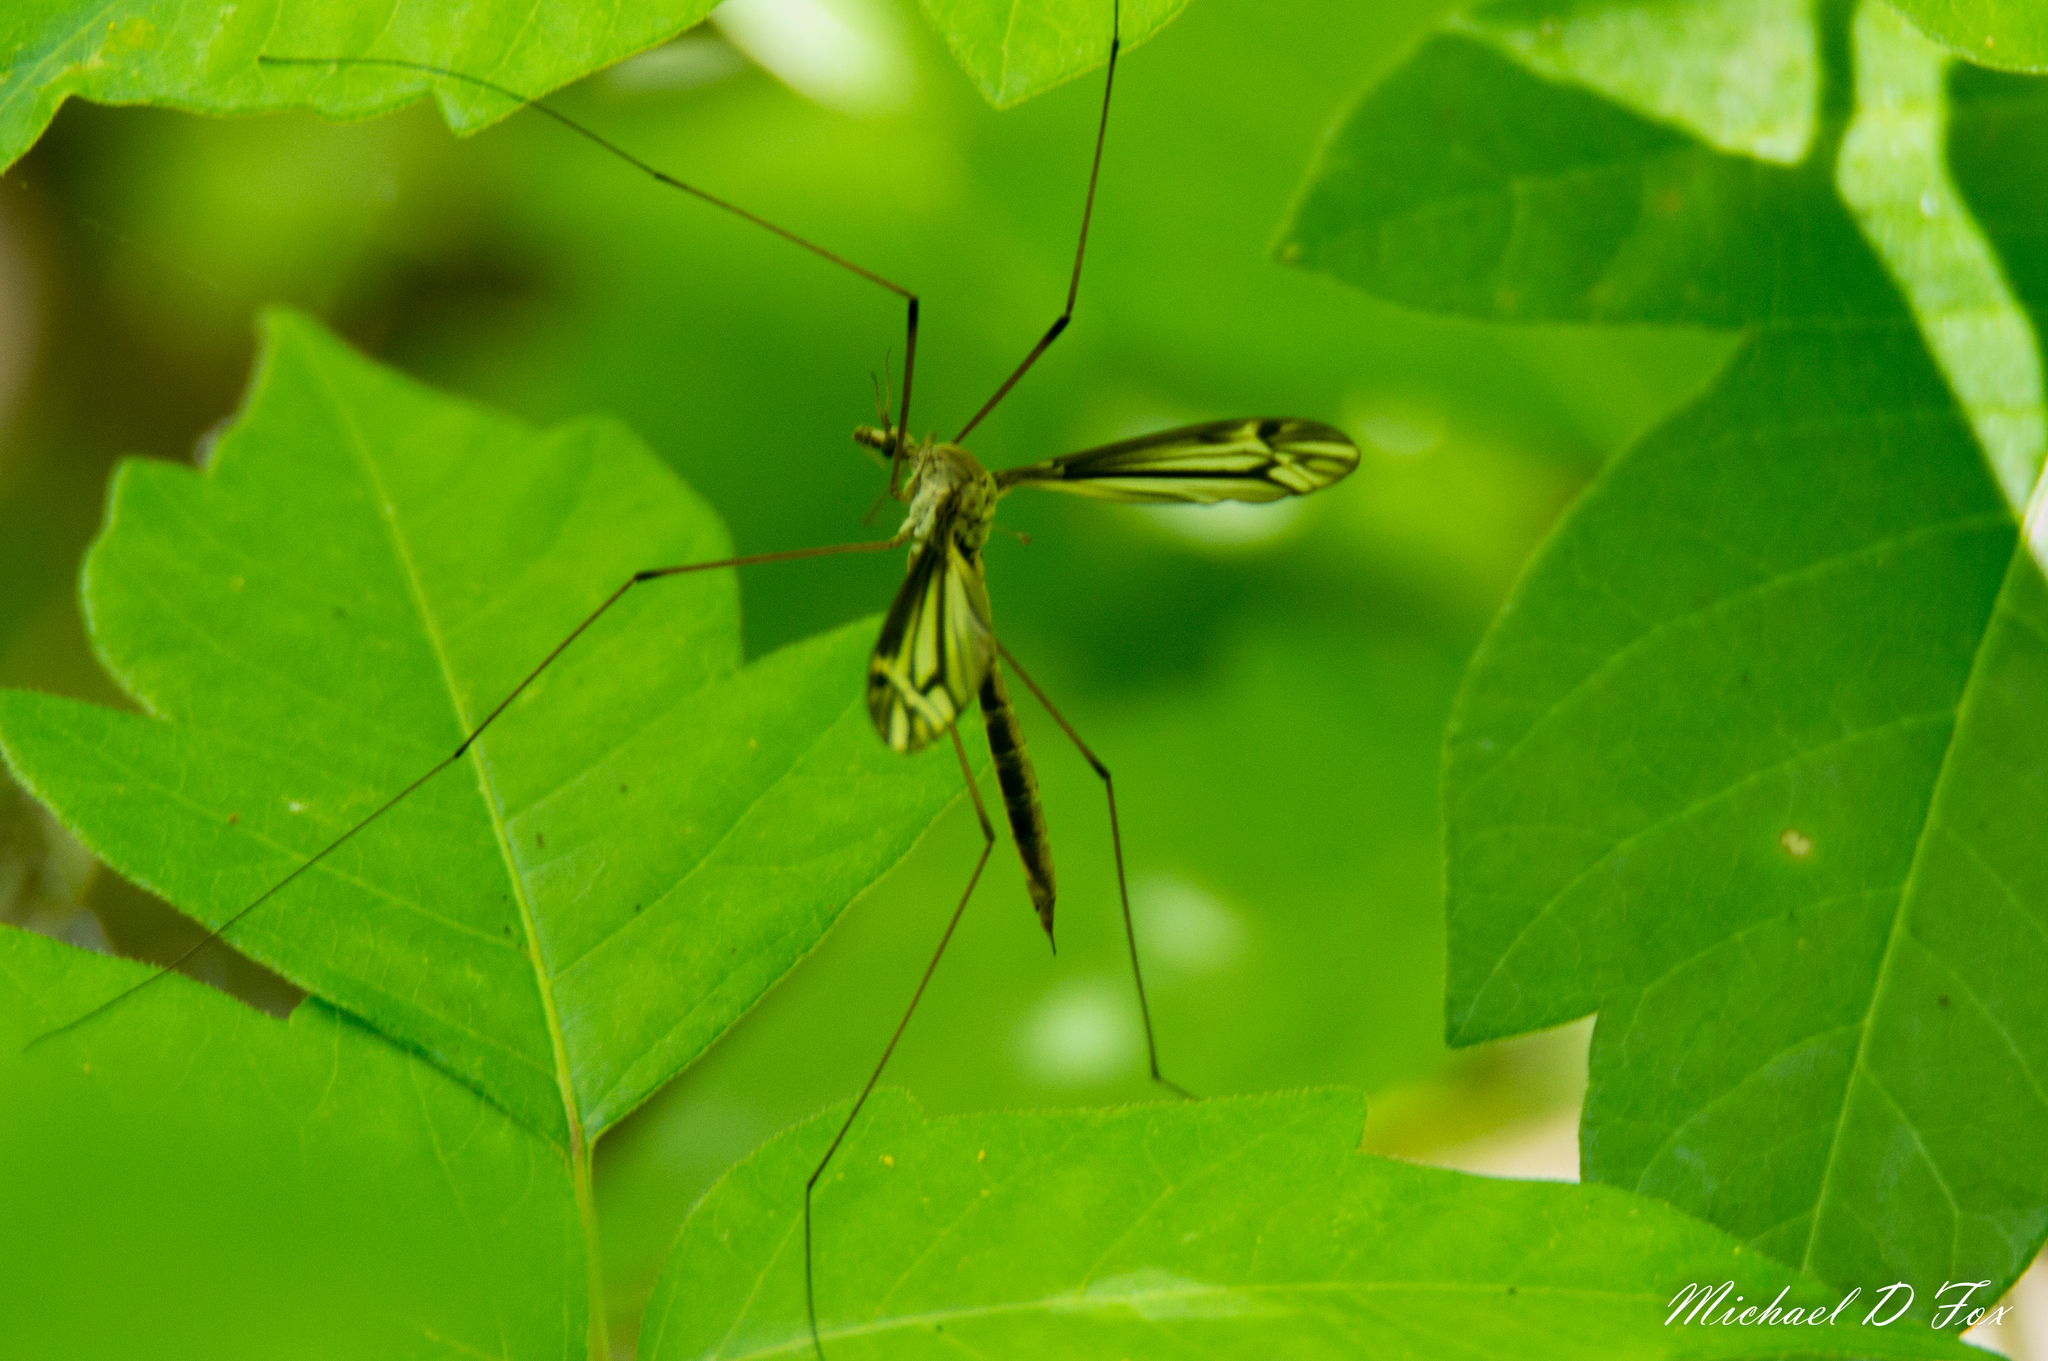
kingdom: Animalia
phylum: Arthropoda
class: Insecta
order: Diptera
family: Tipulidae
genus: Tipula
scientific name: Tipula furca
